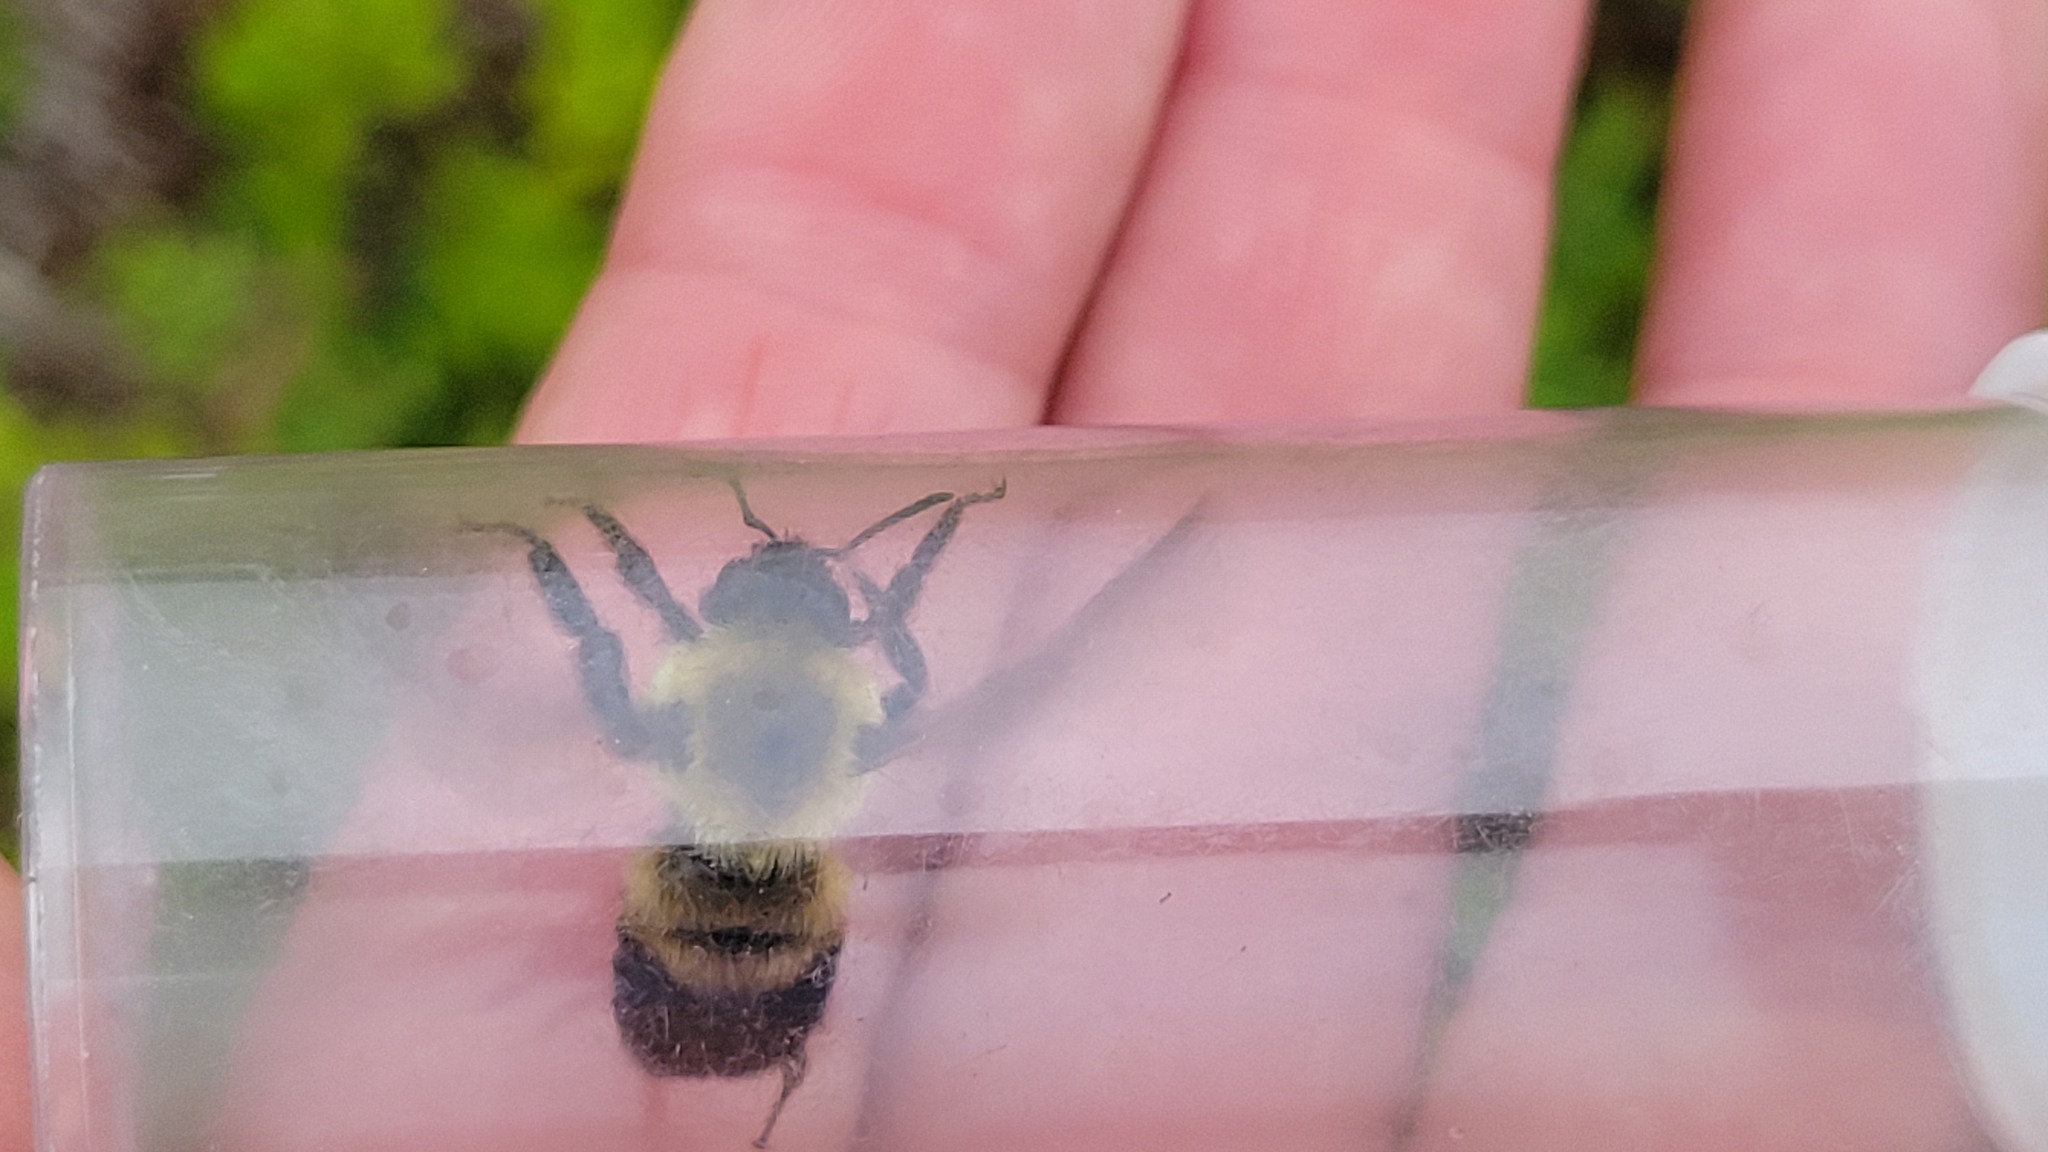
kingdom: Animalia
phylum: Arthropoda
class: Insecta
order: Hymenoptera
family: Apidae
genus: Bombus
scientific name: Bombus griseocollis
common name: Brown-belted bumble bee
